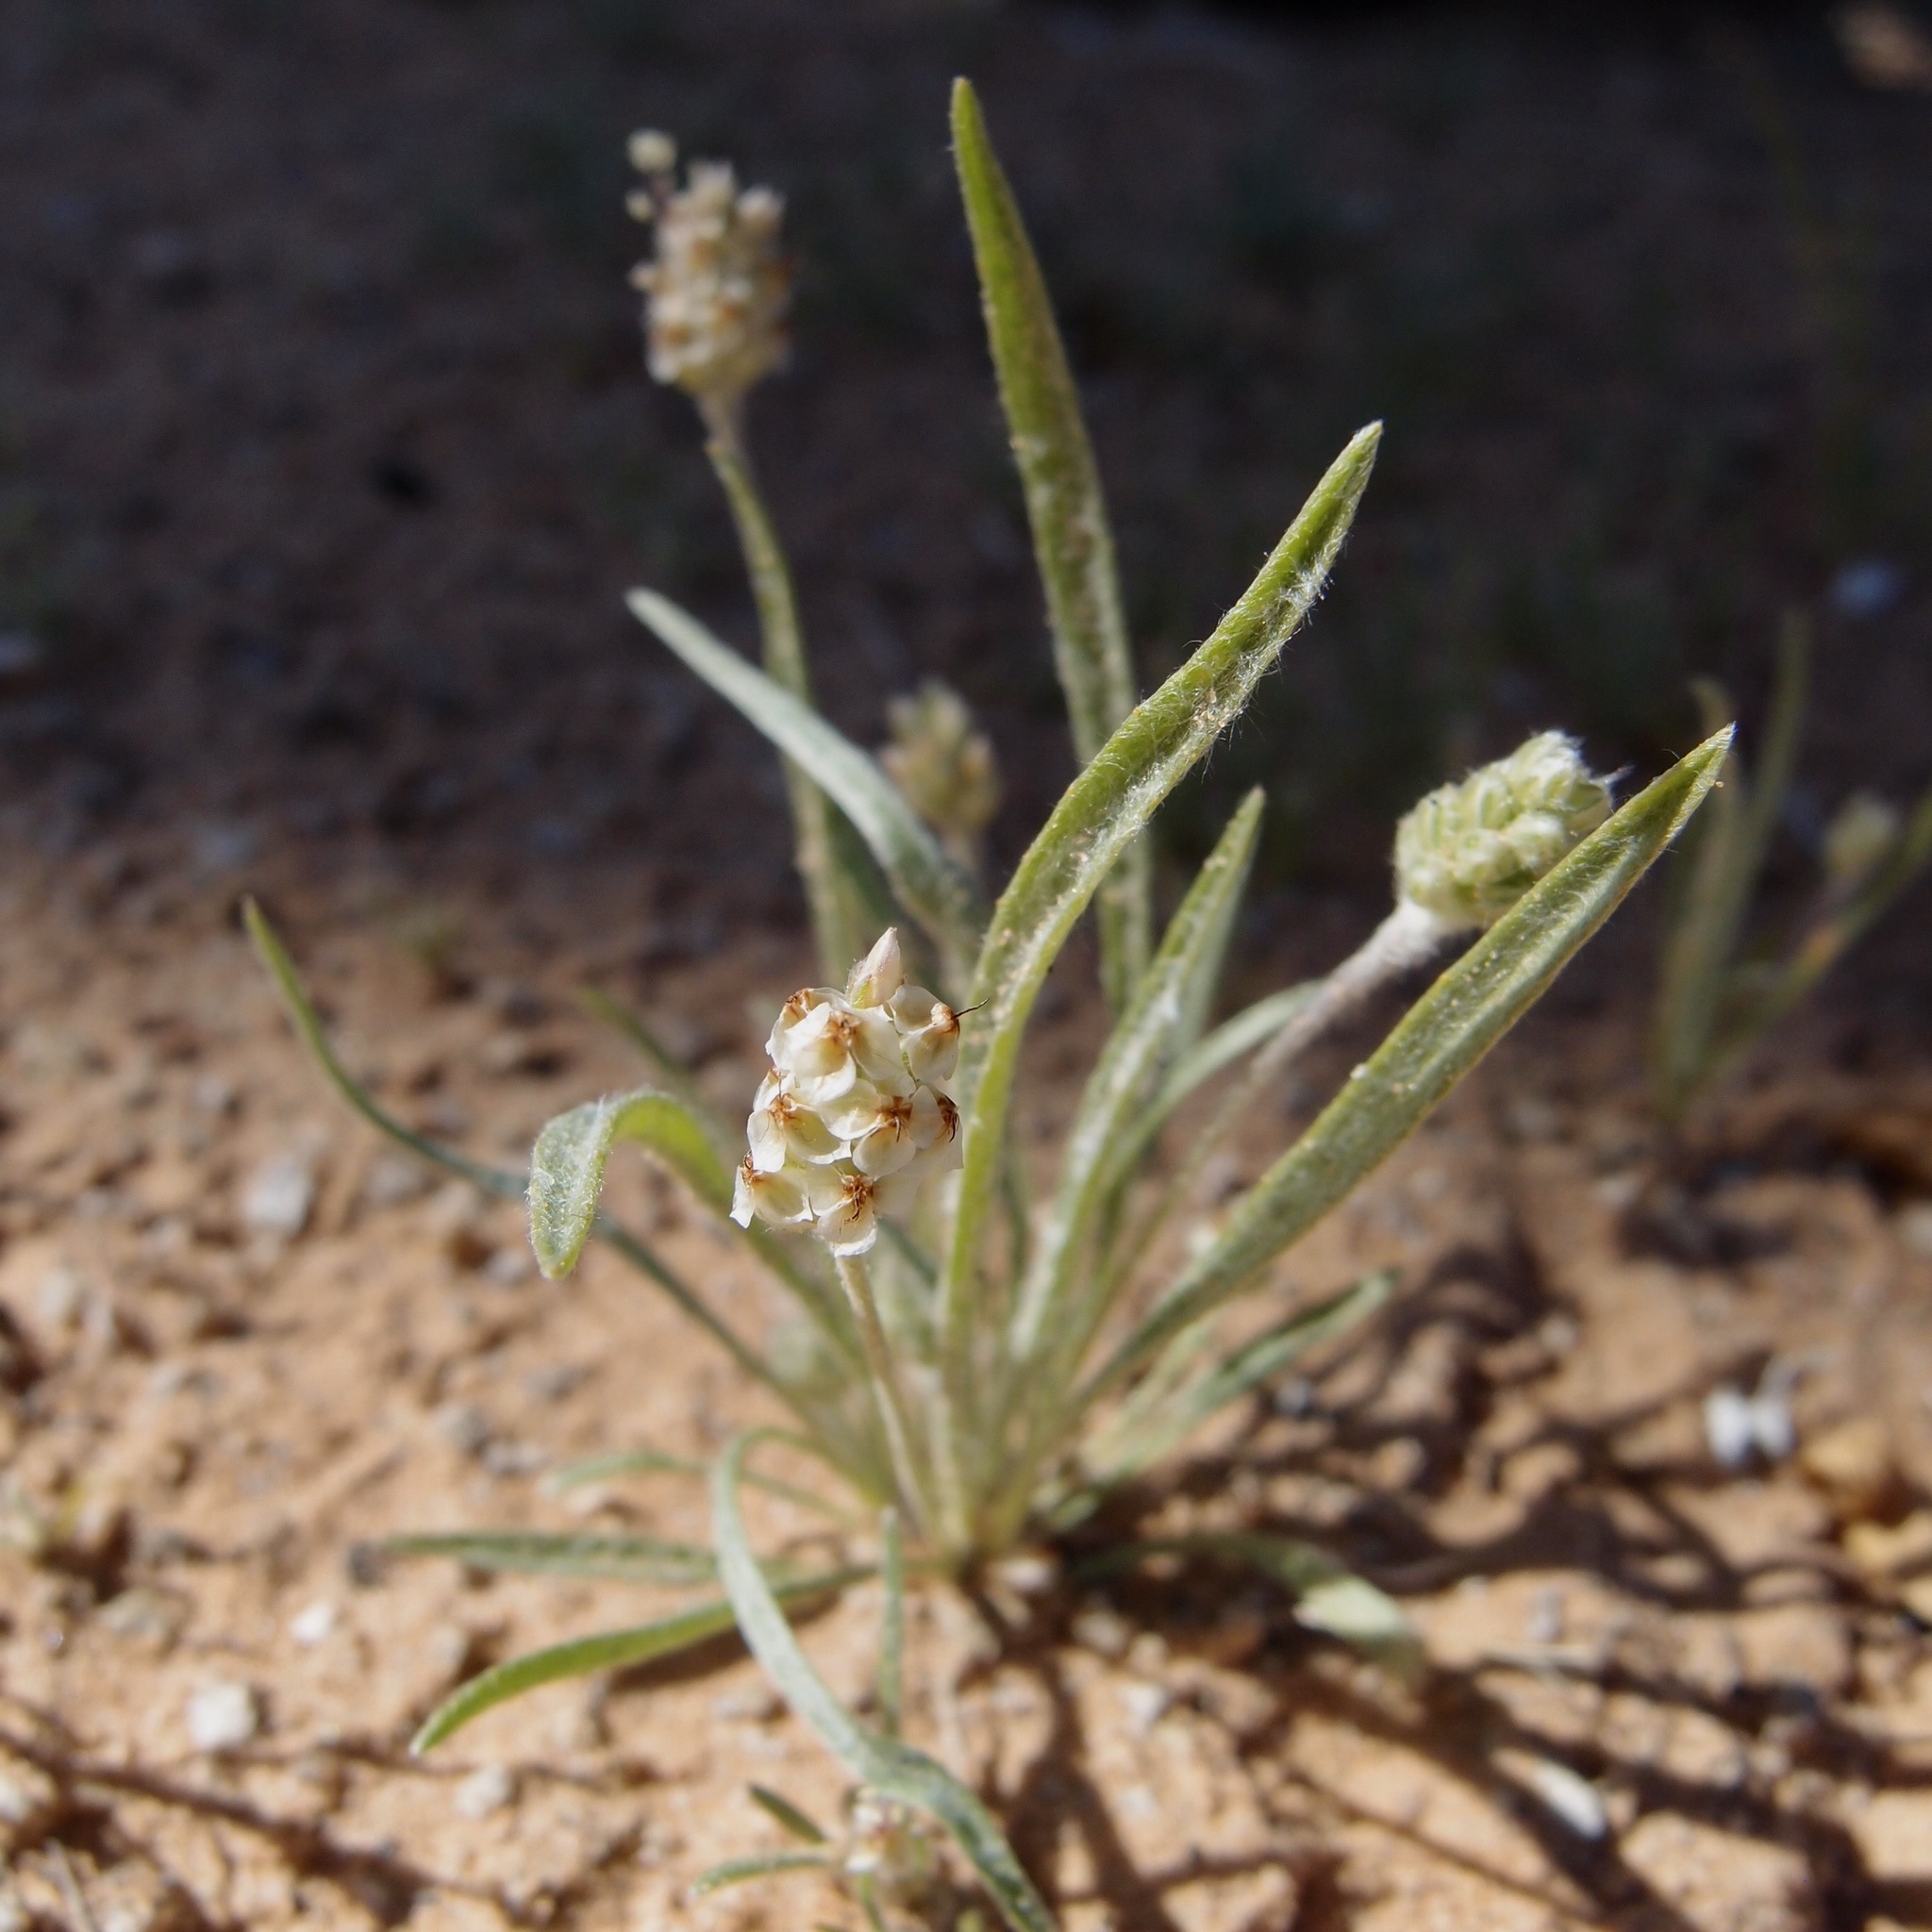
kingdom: Plantae
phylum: Tracheophyta
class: Magnoliopsida
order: Lamiales
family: Plantaginaceae
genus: Plantago
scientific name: Plantago ovata
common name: Blond plantain
